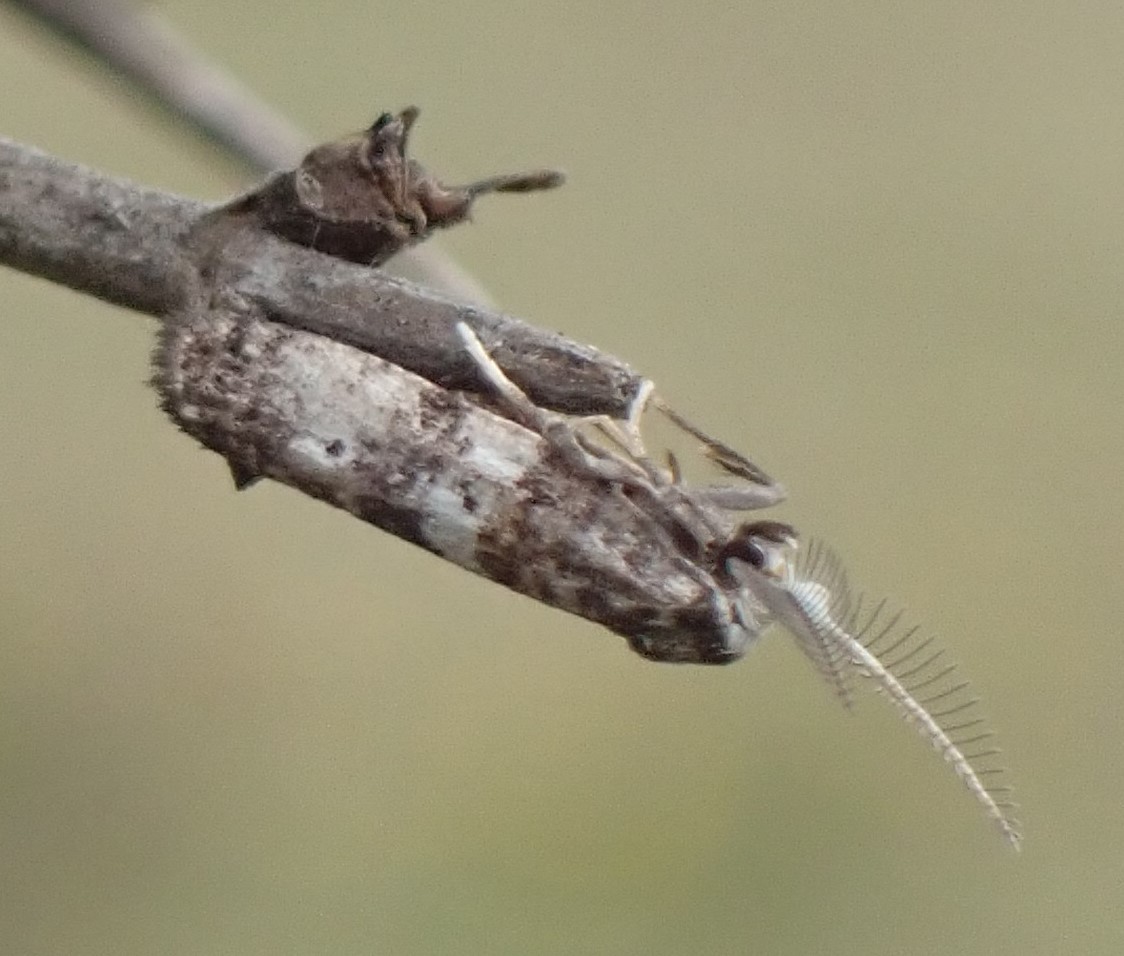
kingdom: Animalia
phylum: Arthropoda
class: Insecta
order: Lepidoptera
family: Galacticidae
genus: Tanaoctena
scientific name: Tanaoctena pygmaeodes
